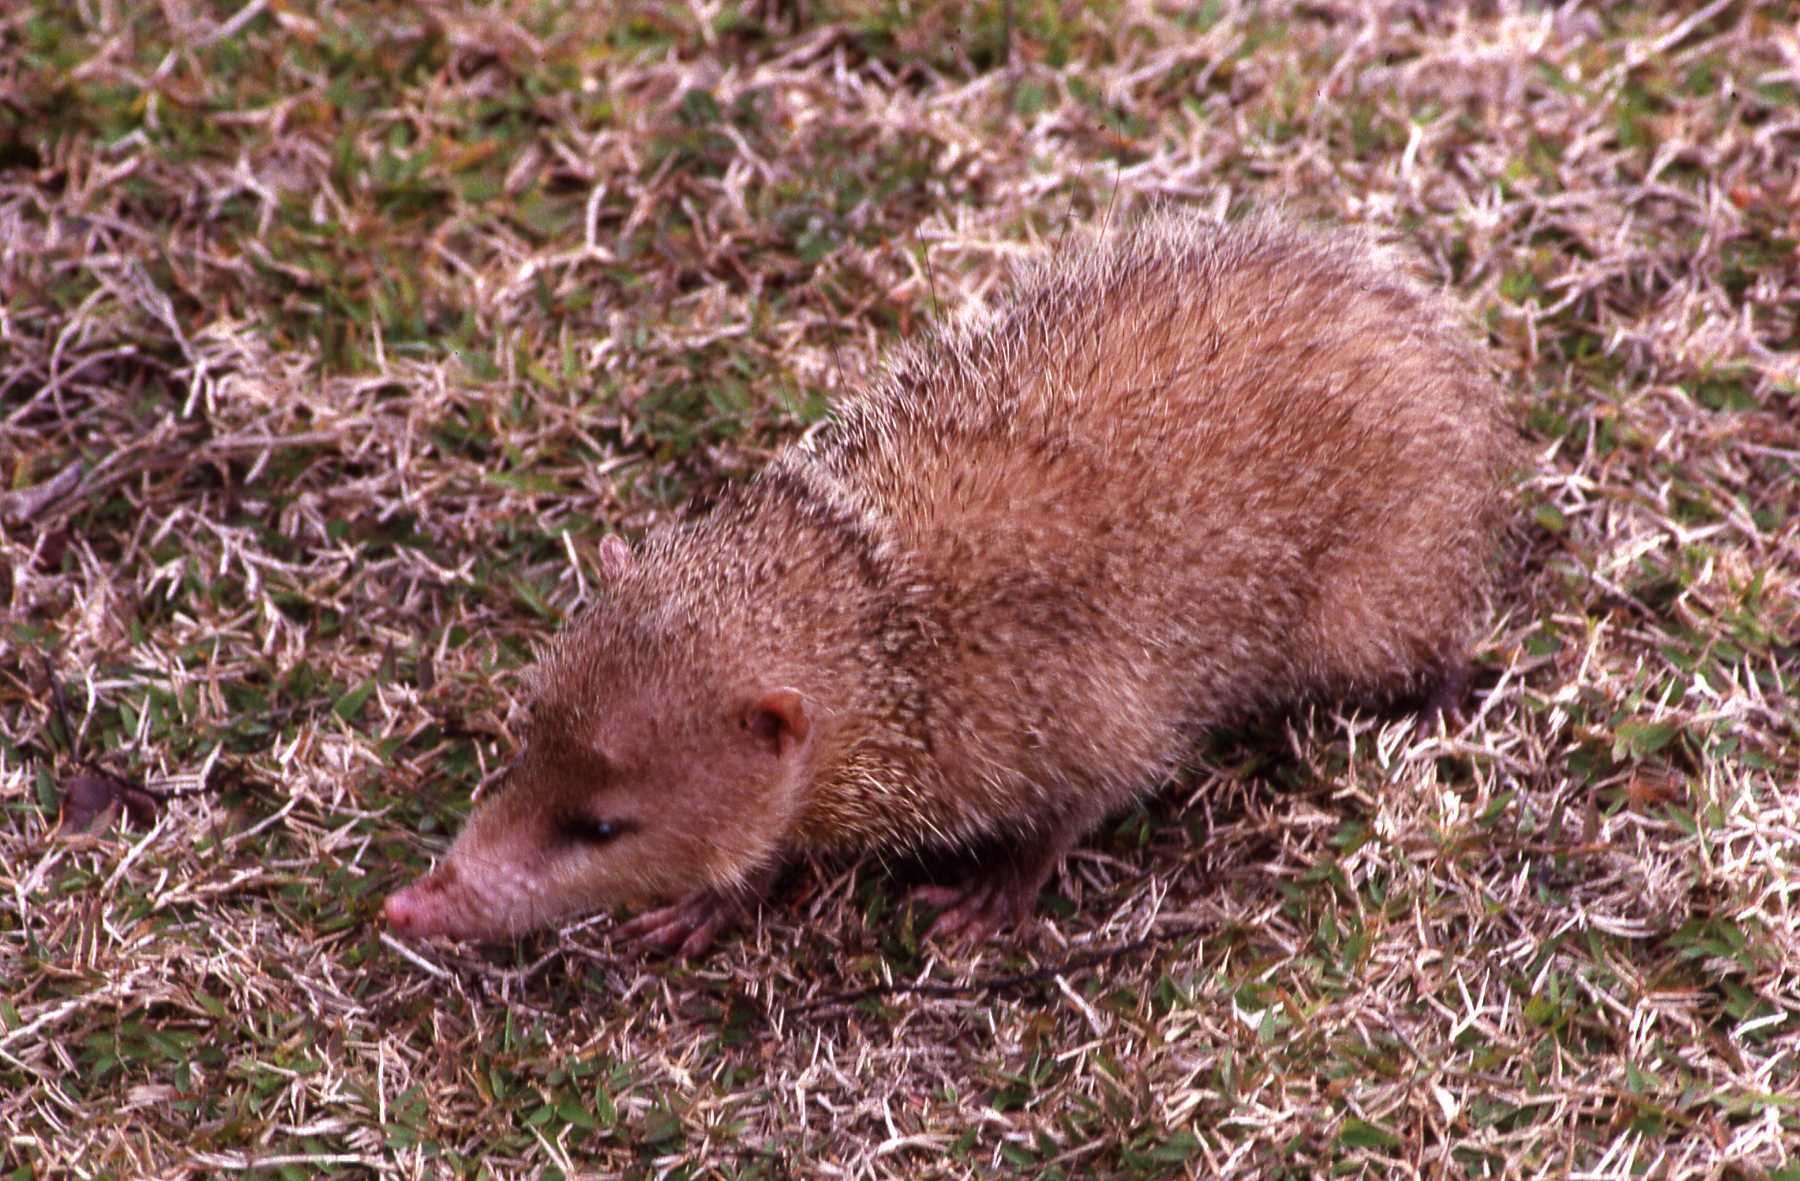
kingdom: Animalia
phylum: Chordata
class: Mammalia
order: Afrosoricida
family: Tenrecidae
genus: Tenrec
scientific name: Tenrec ecaudatus
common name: Common tenrec
